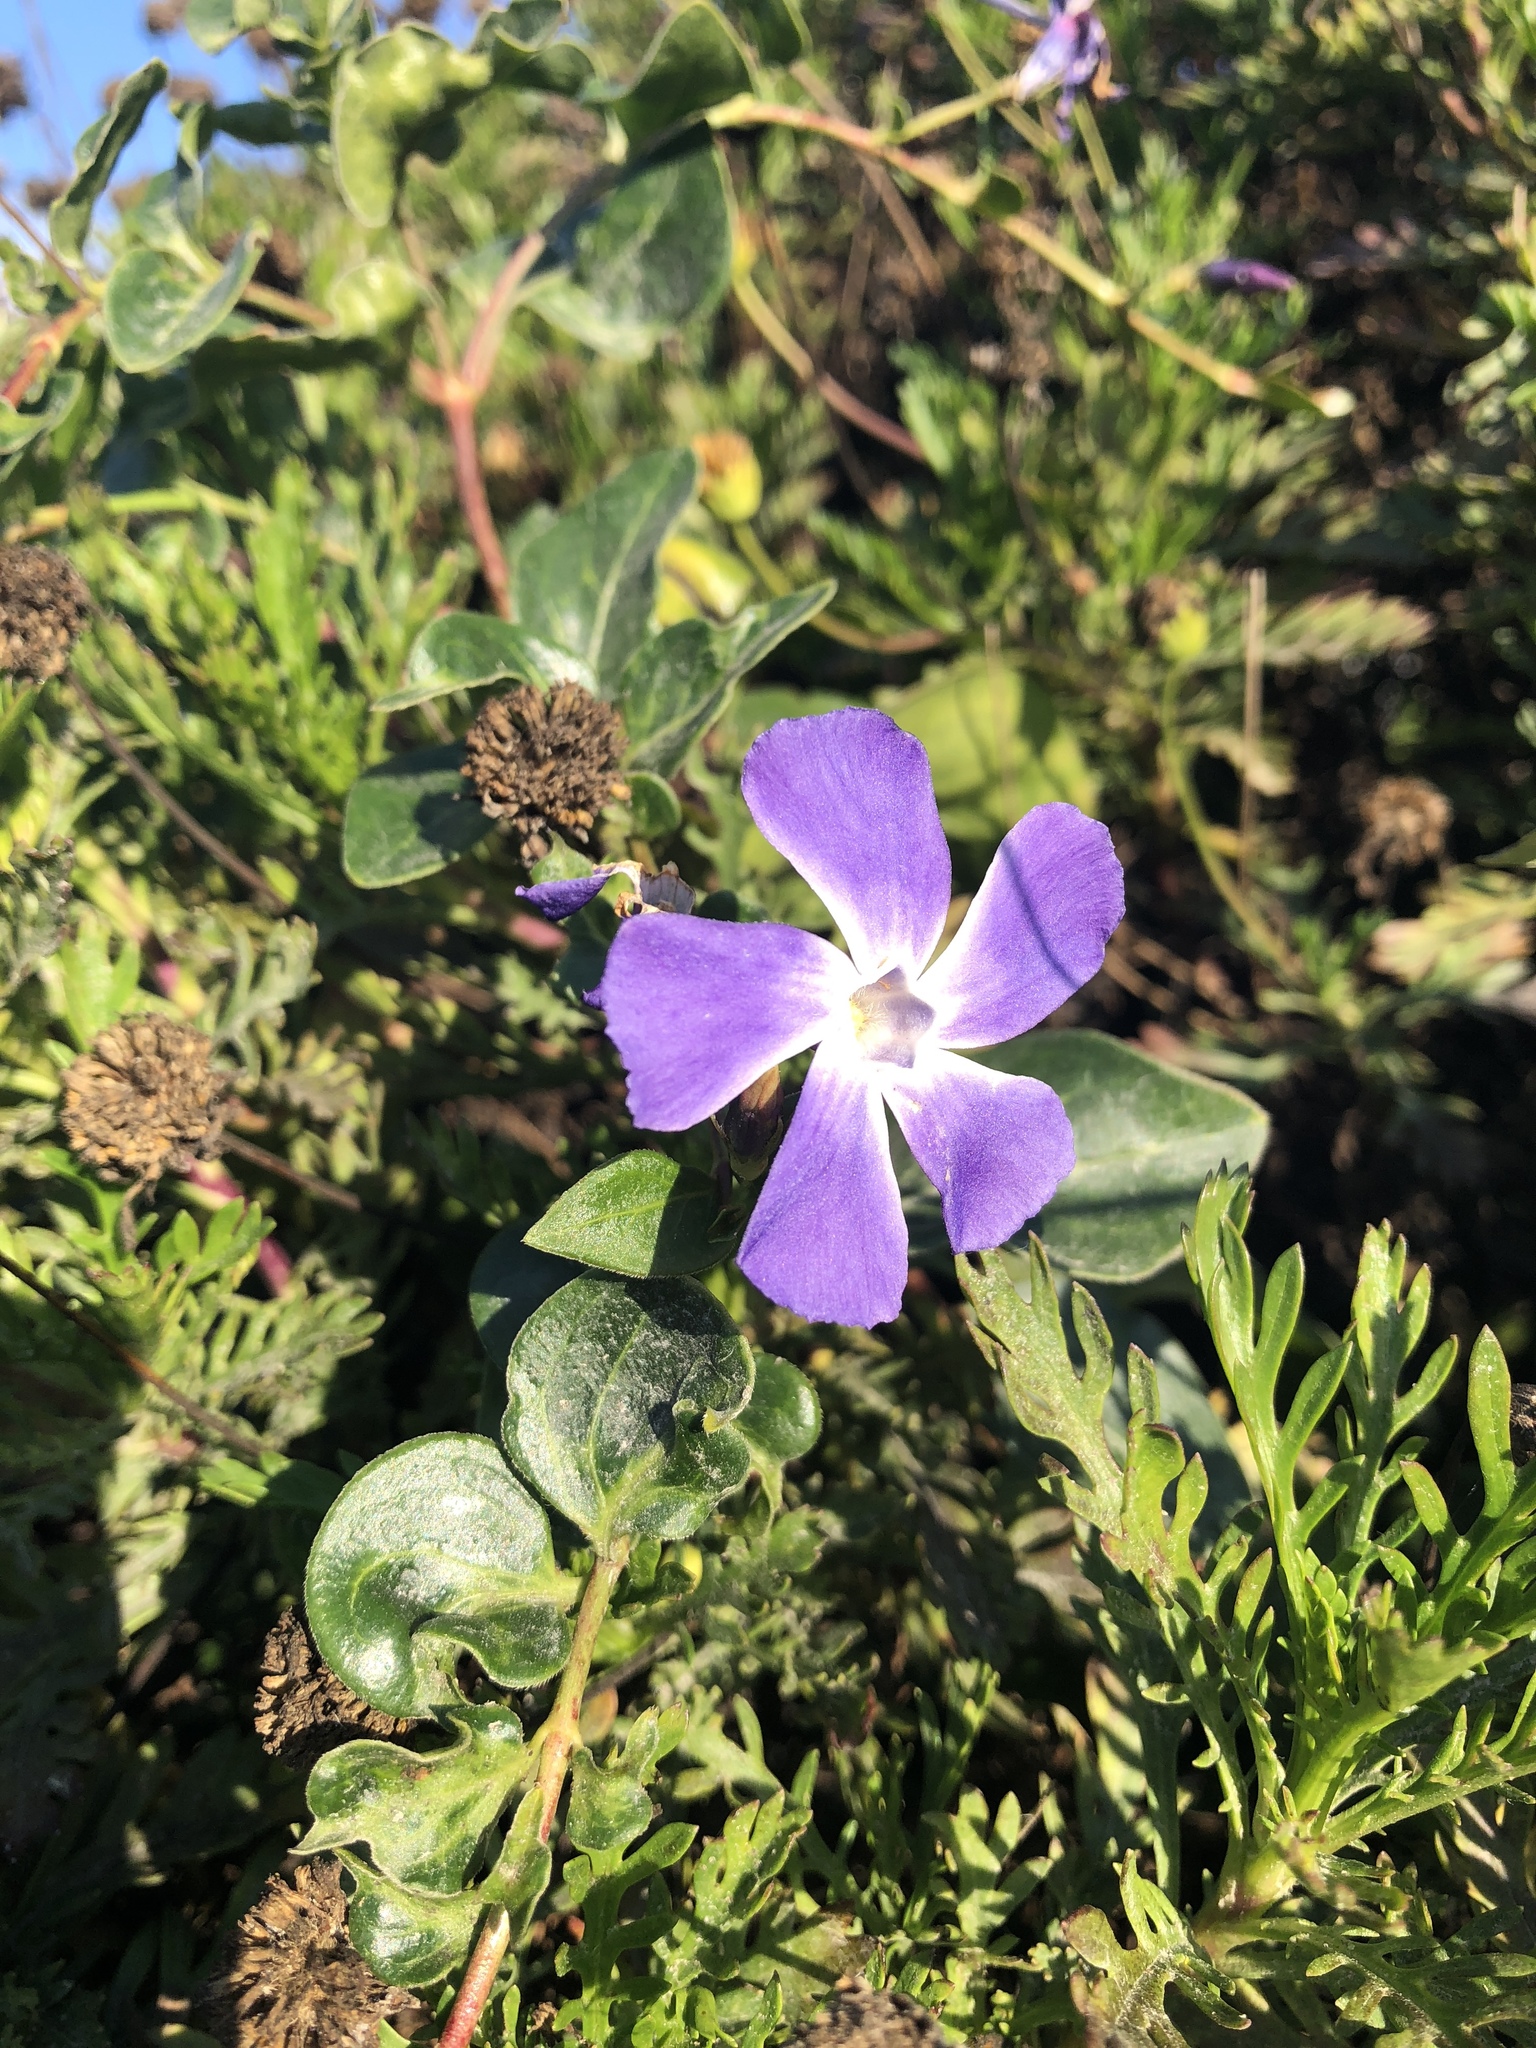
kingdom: Plantae
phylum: Tracheophyta
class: Magnoliopsida
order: Gentianales
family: Apocynaceae
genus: Vinca
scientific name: Vinca major
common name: Greater periwinkle
